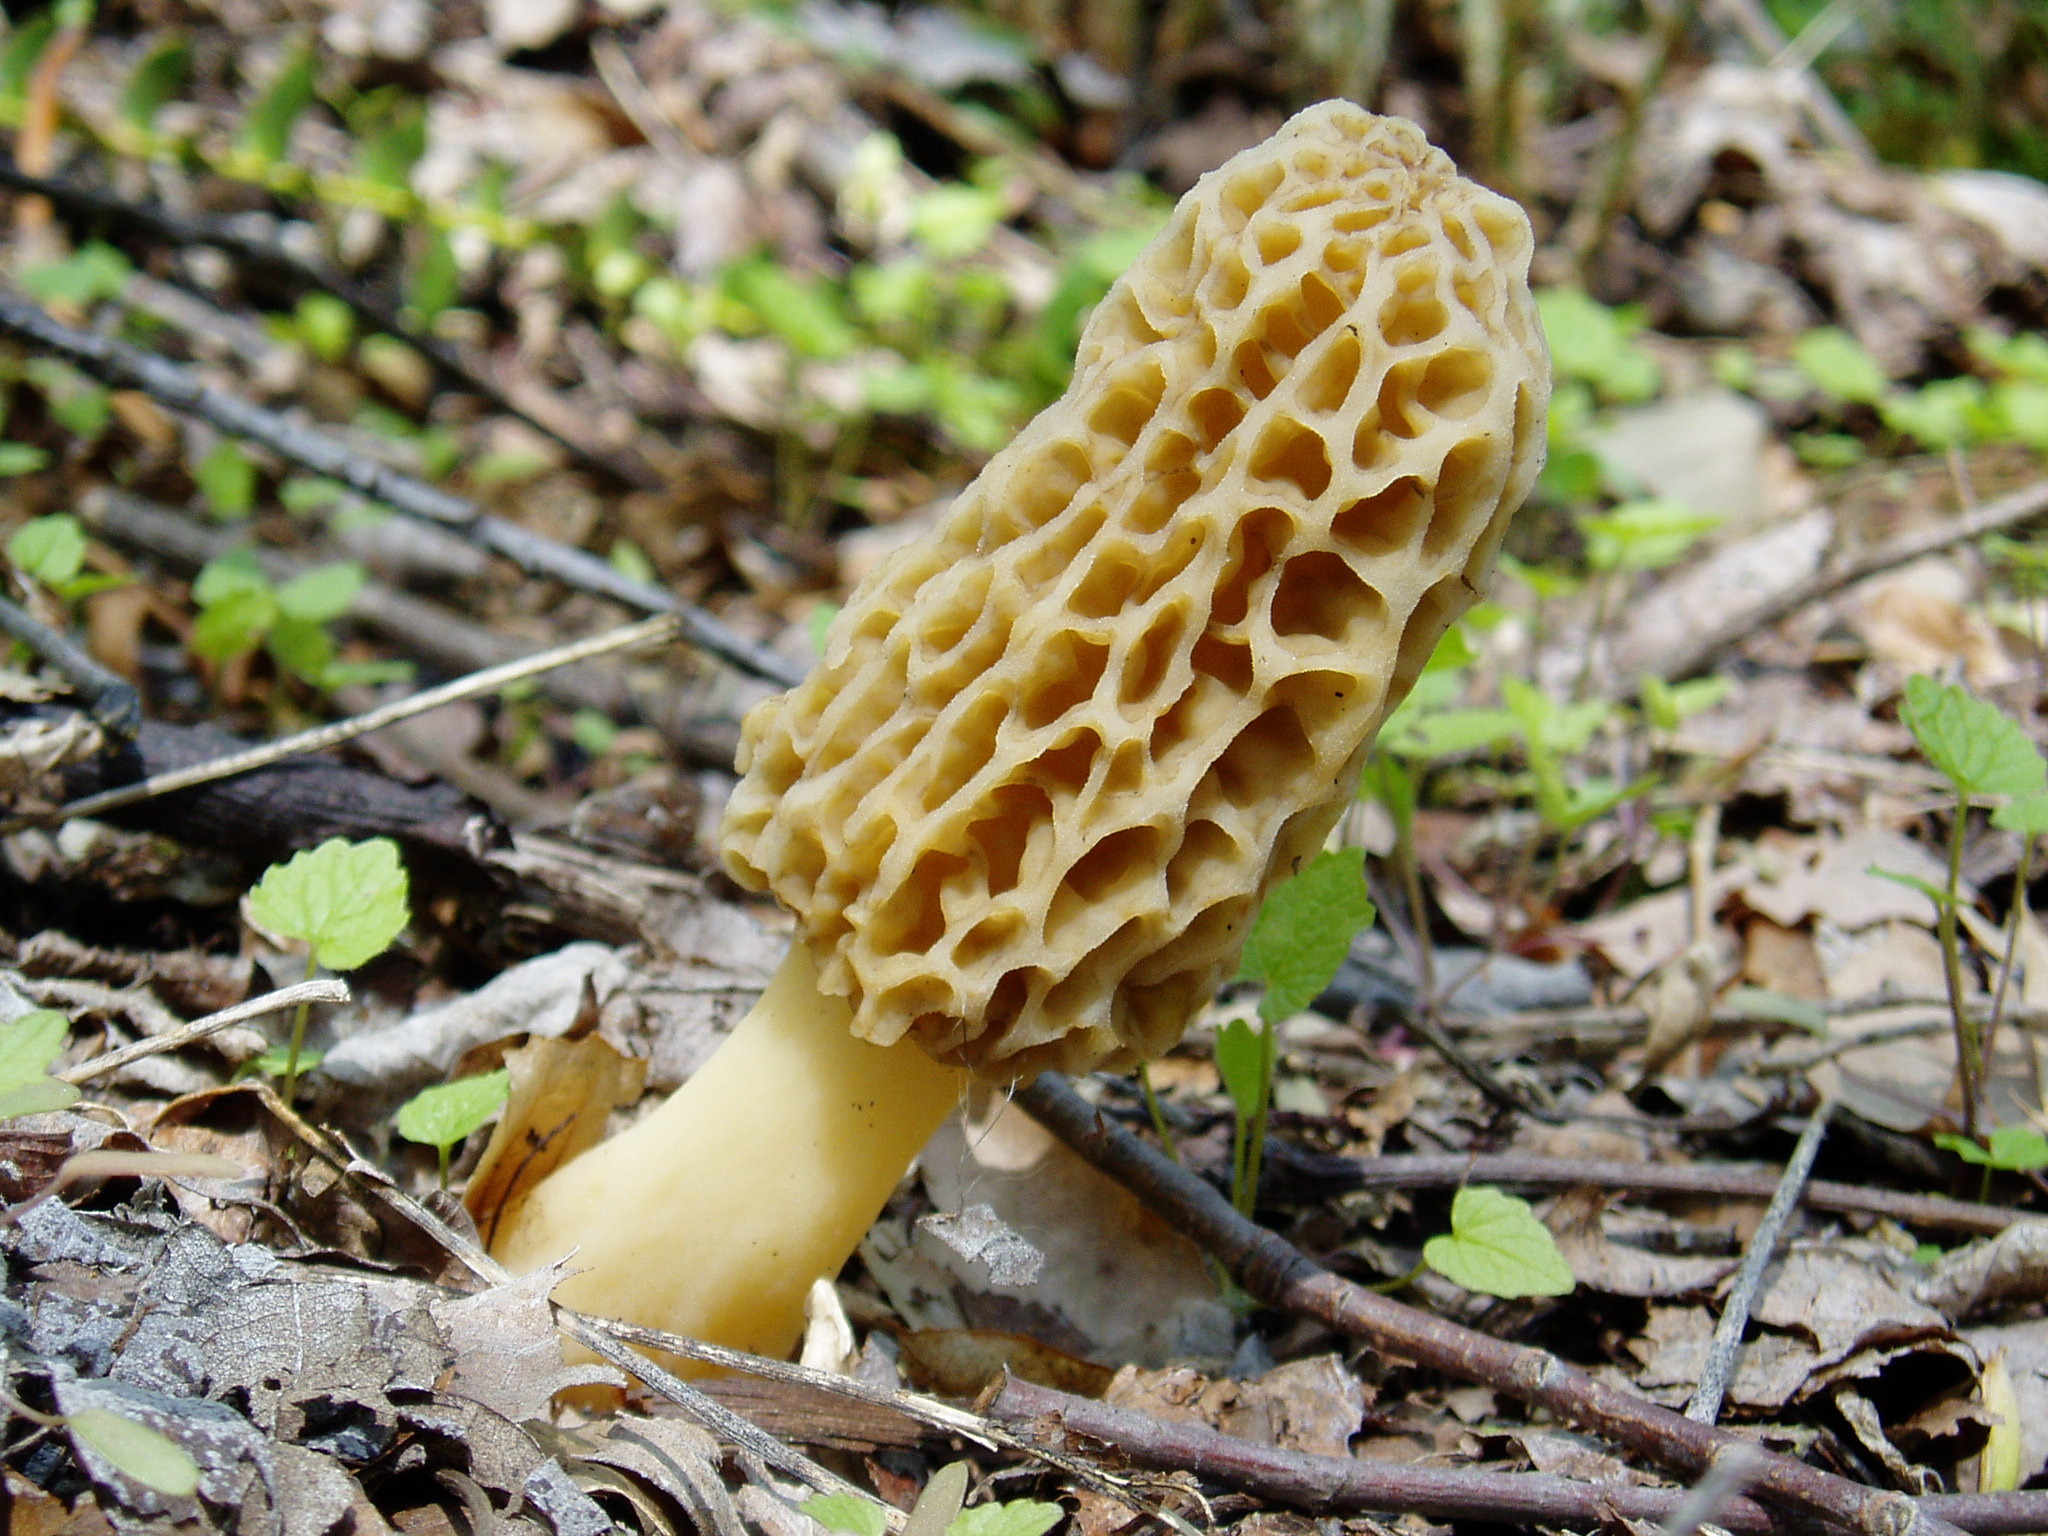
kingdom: Fungi
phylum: Ascomycota
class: Pezizomycetes
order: Pezizales
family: Morchellaceae
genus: Morchella
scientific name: Morchella americana
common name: White morel
